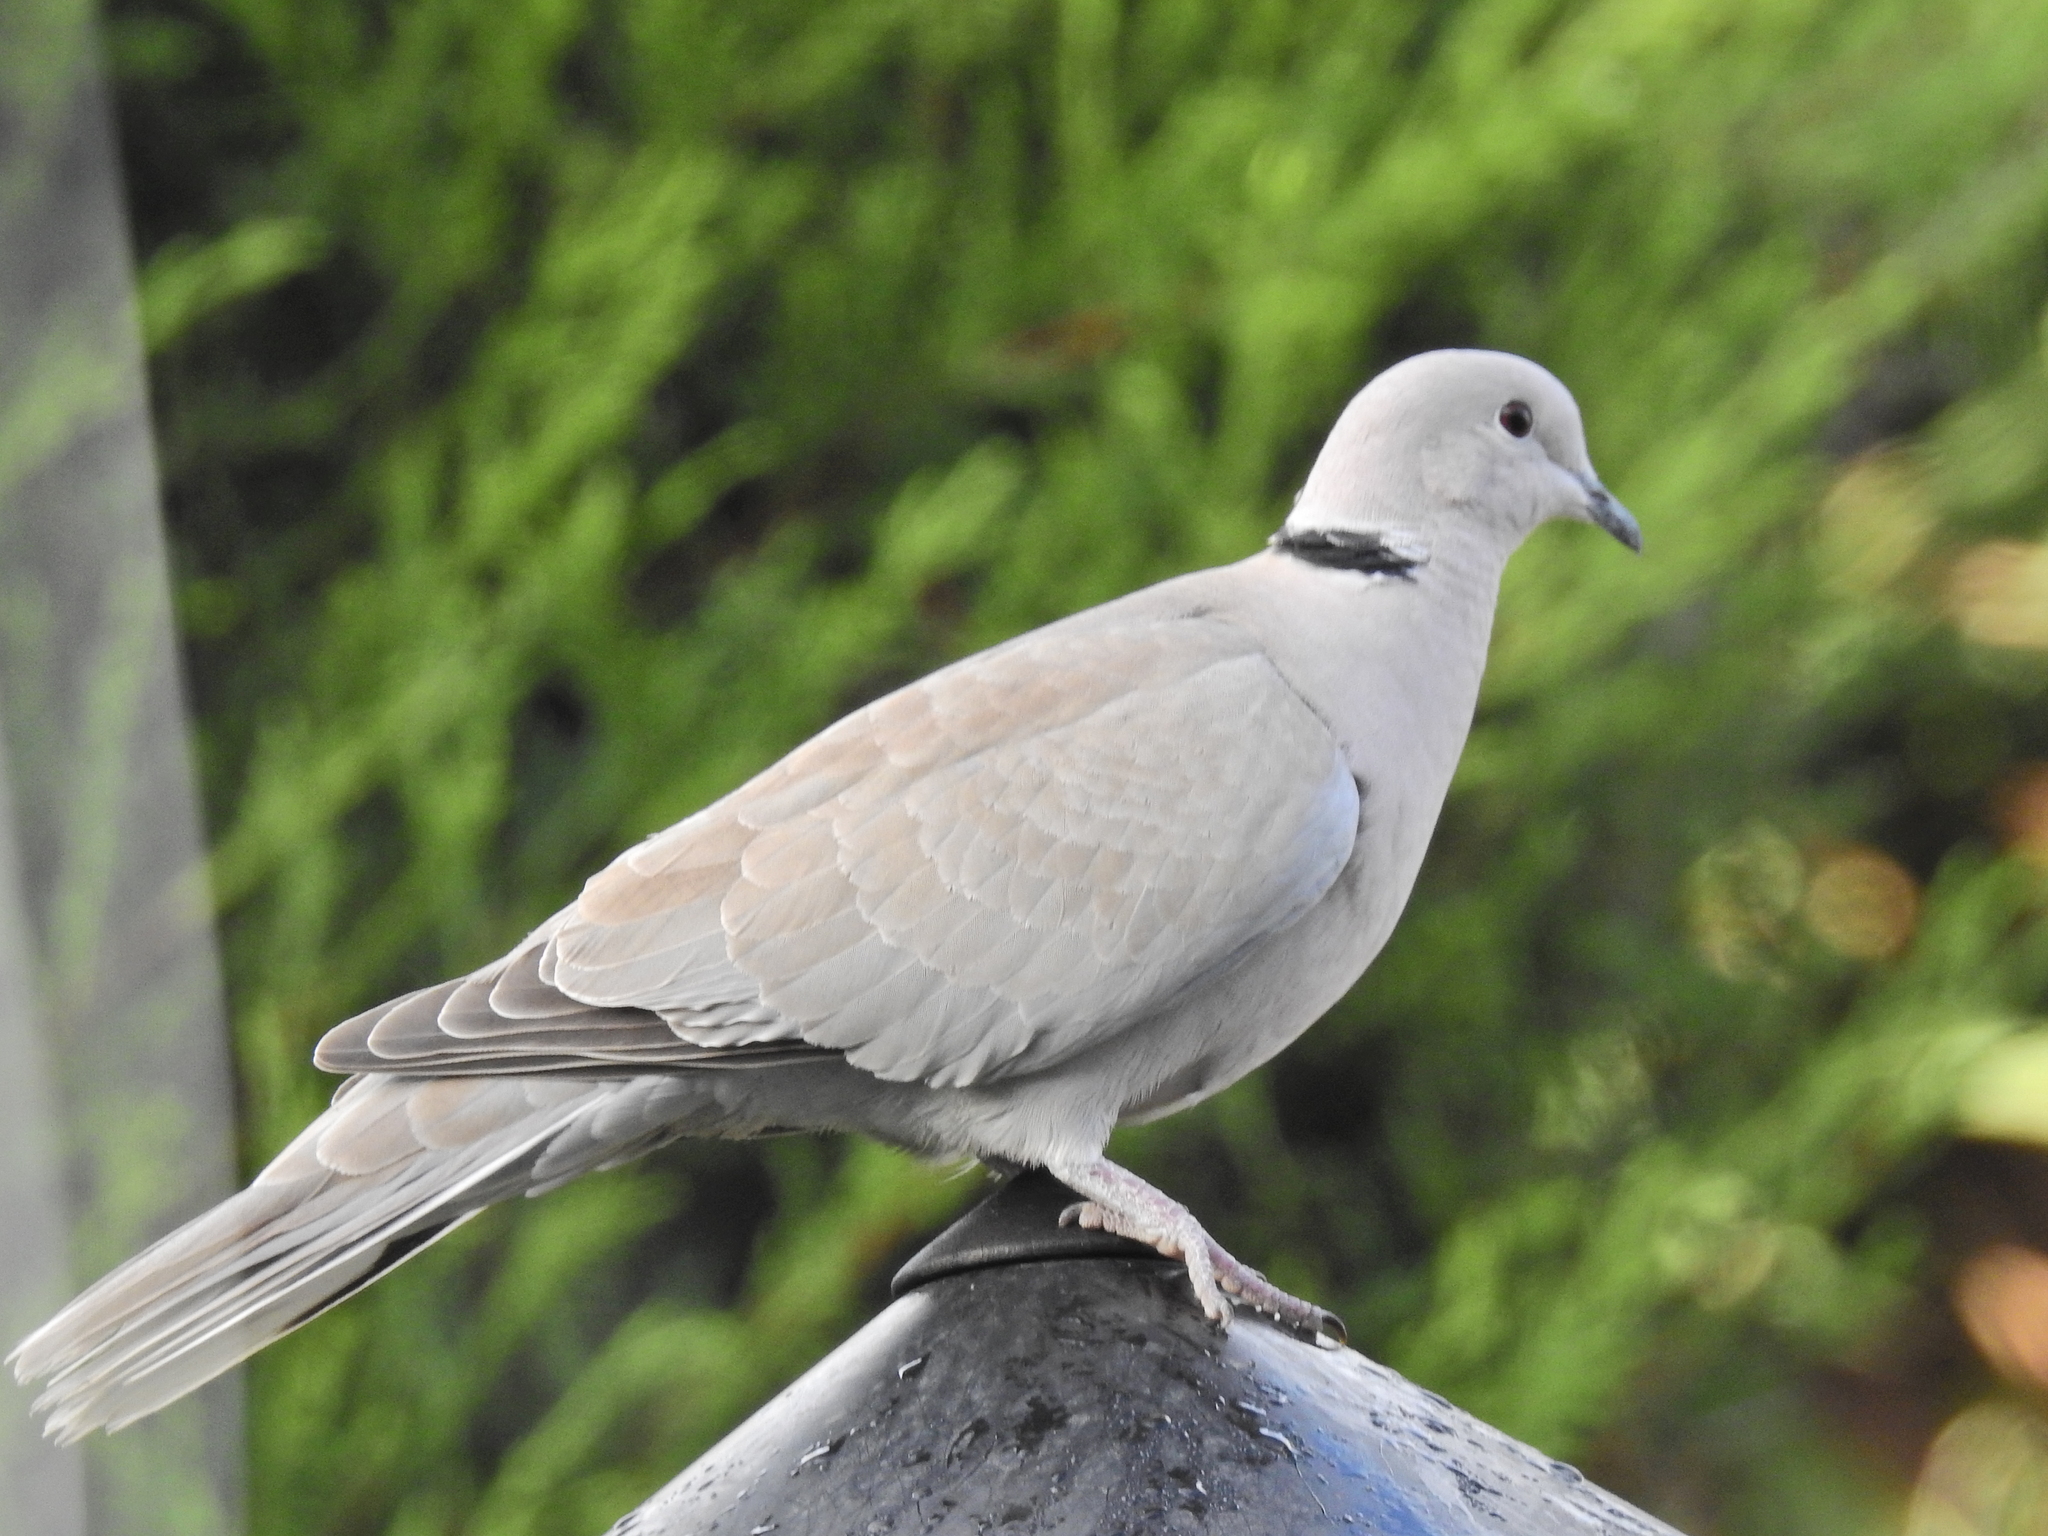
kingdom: Animalia
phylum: Chordata
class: Aves
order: Columbiformes
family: Columbidae
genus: Streptopelia
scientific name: Streptopelia decaocto
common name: Eurasian collared dove
